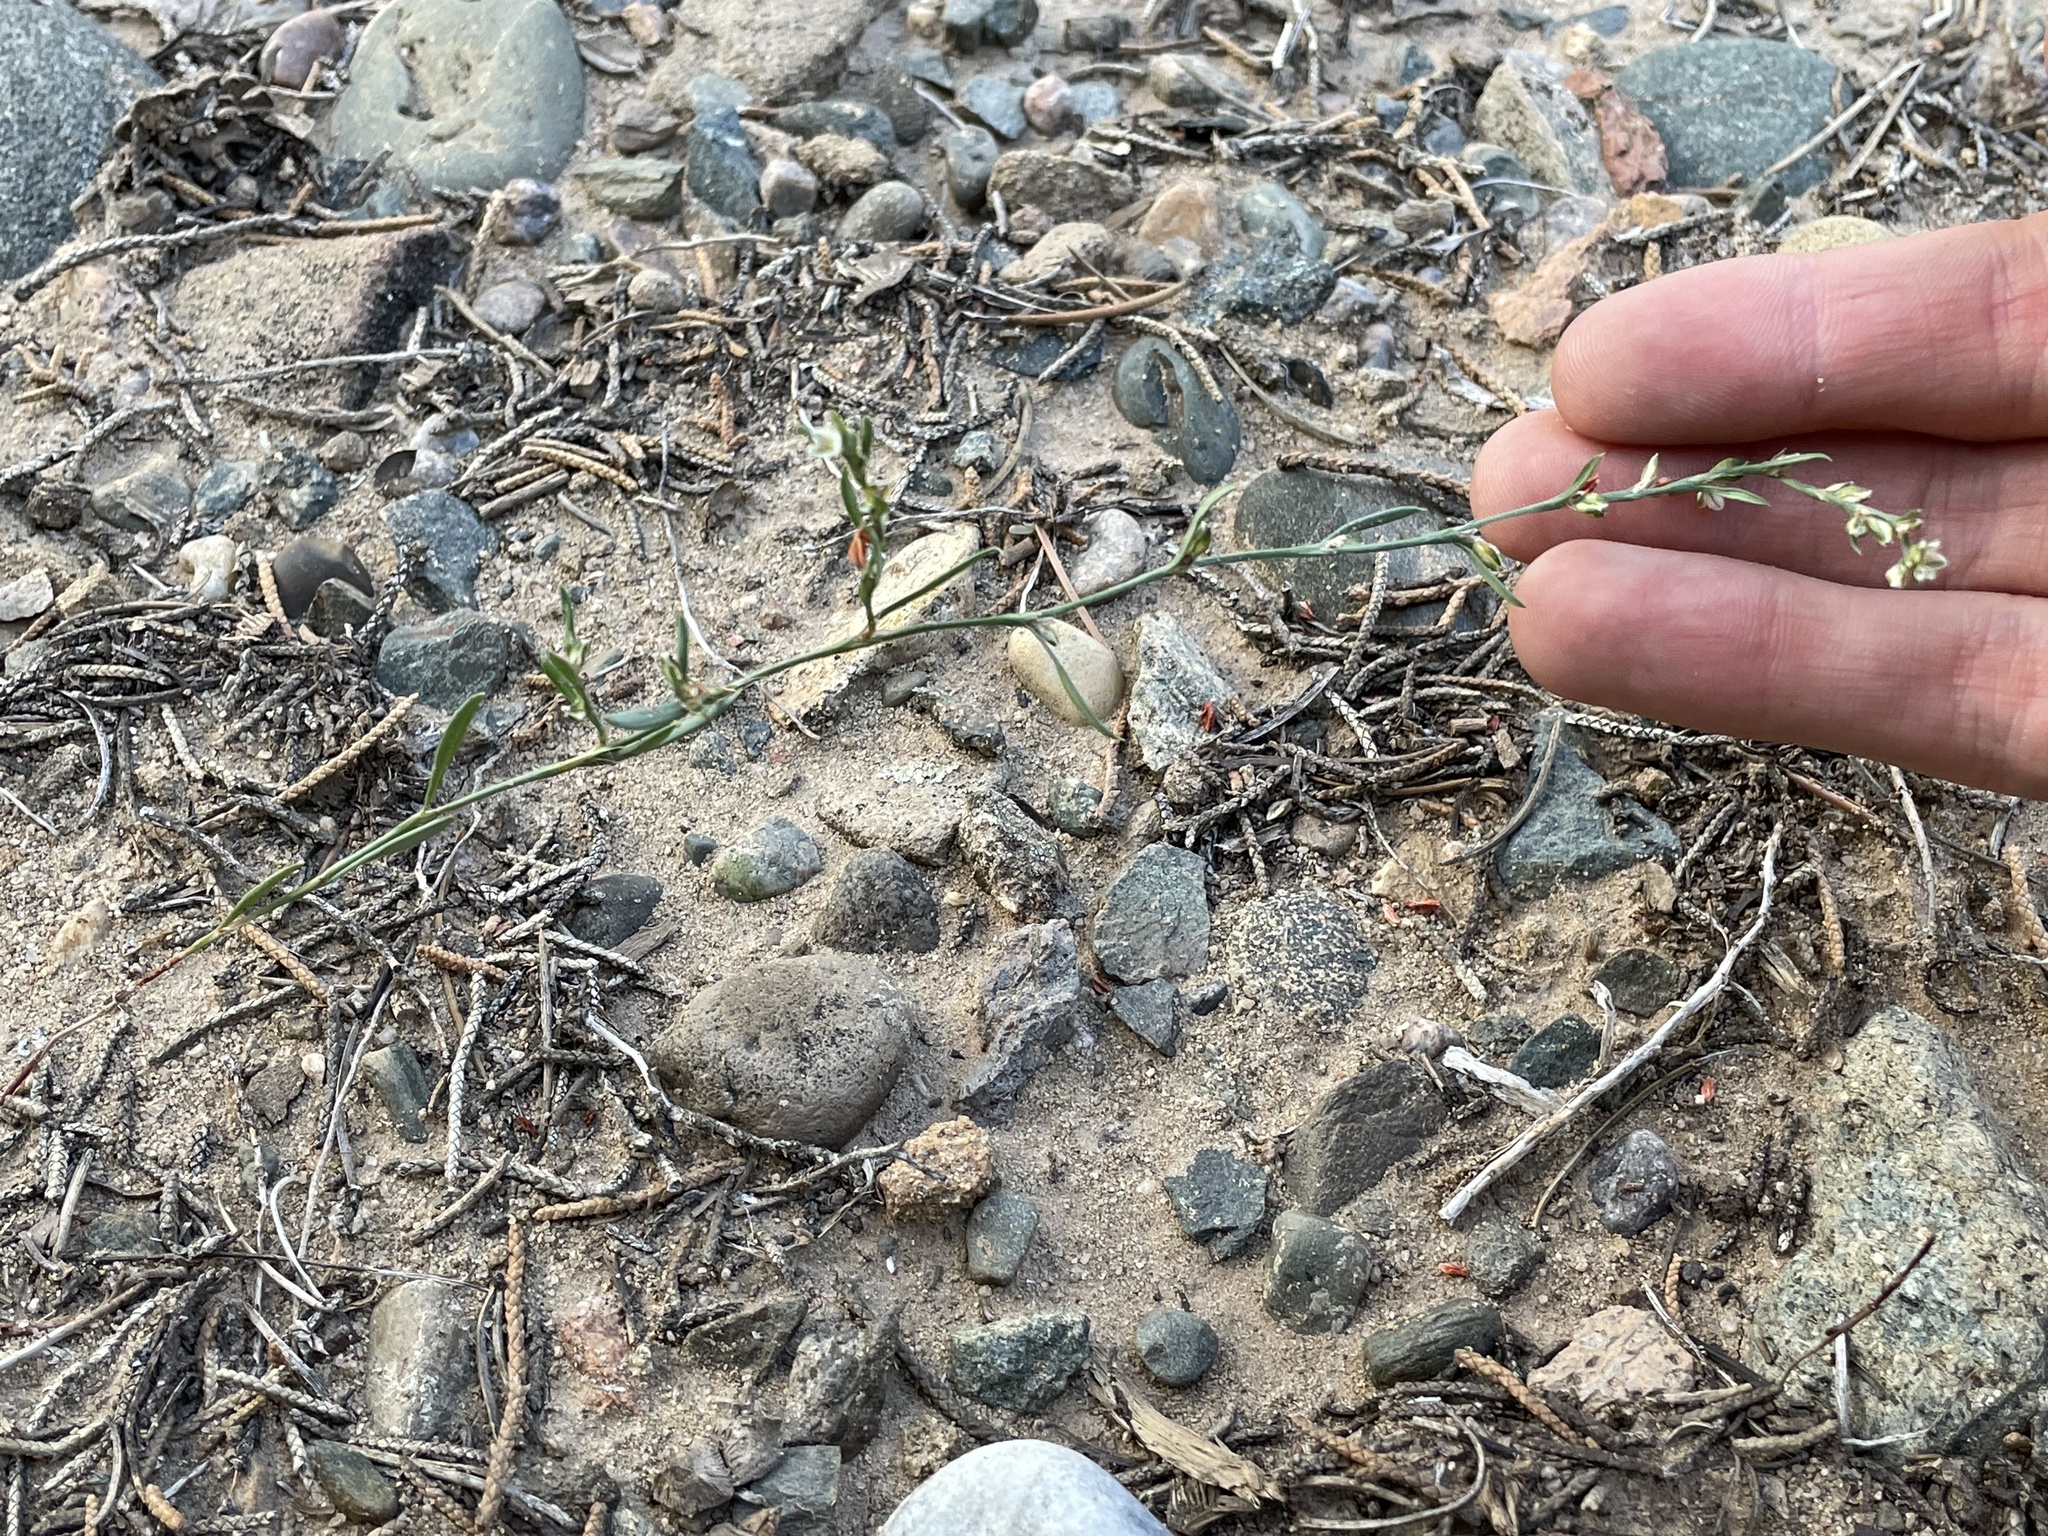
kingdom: Plantae
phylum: Tracheophyta
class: Magnoliopsida
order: Caryophyllales
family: Polygonaceae
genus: Polygonum
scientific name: Polygonum douglasii
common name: Douglas' knotweed
